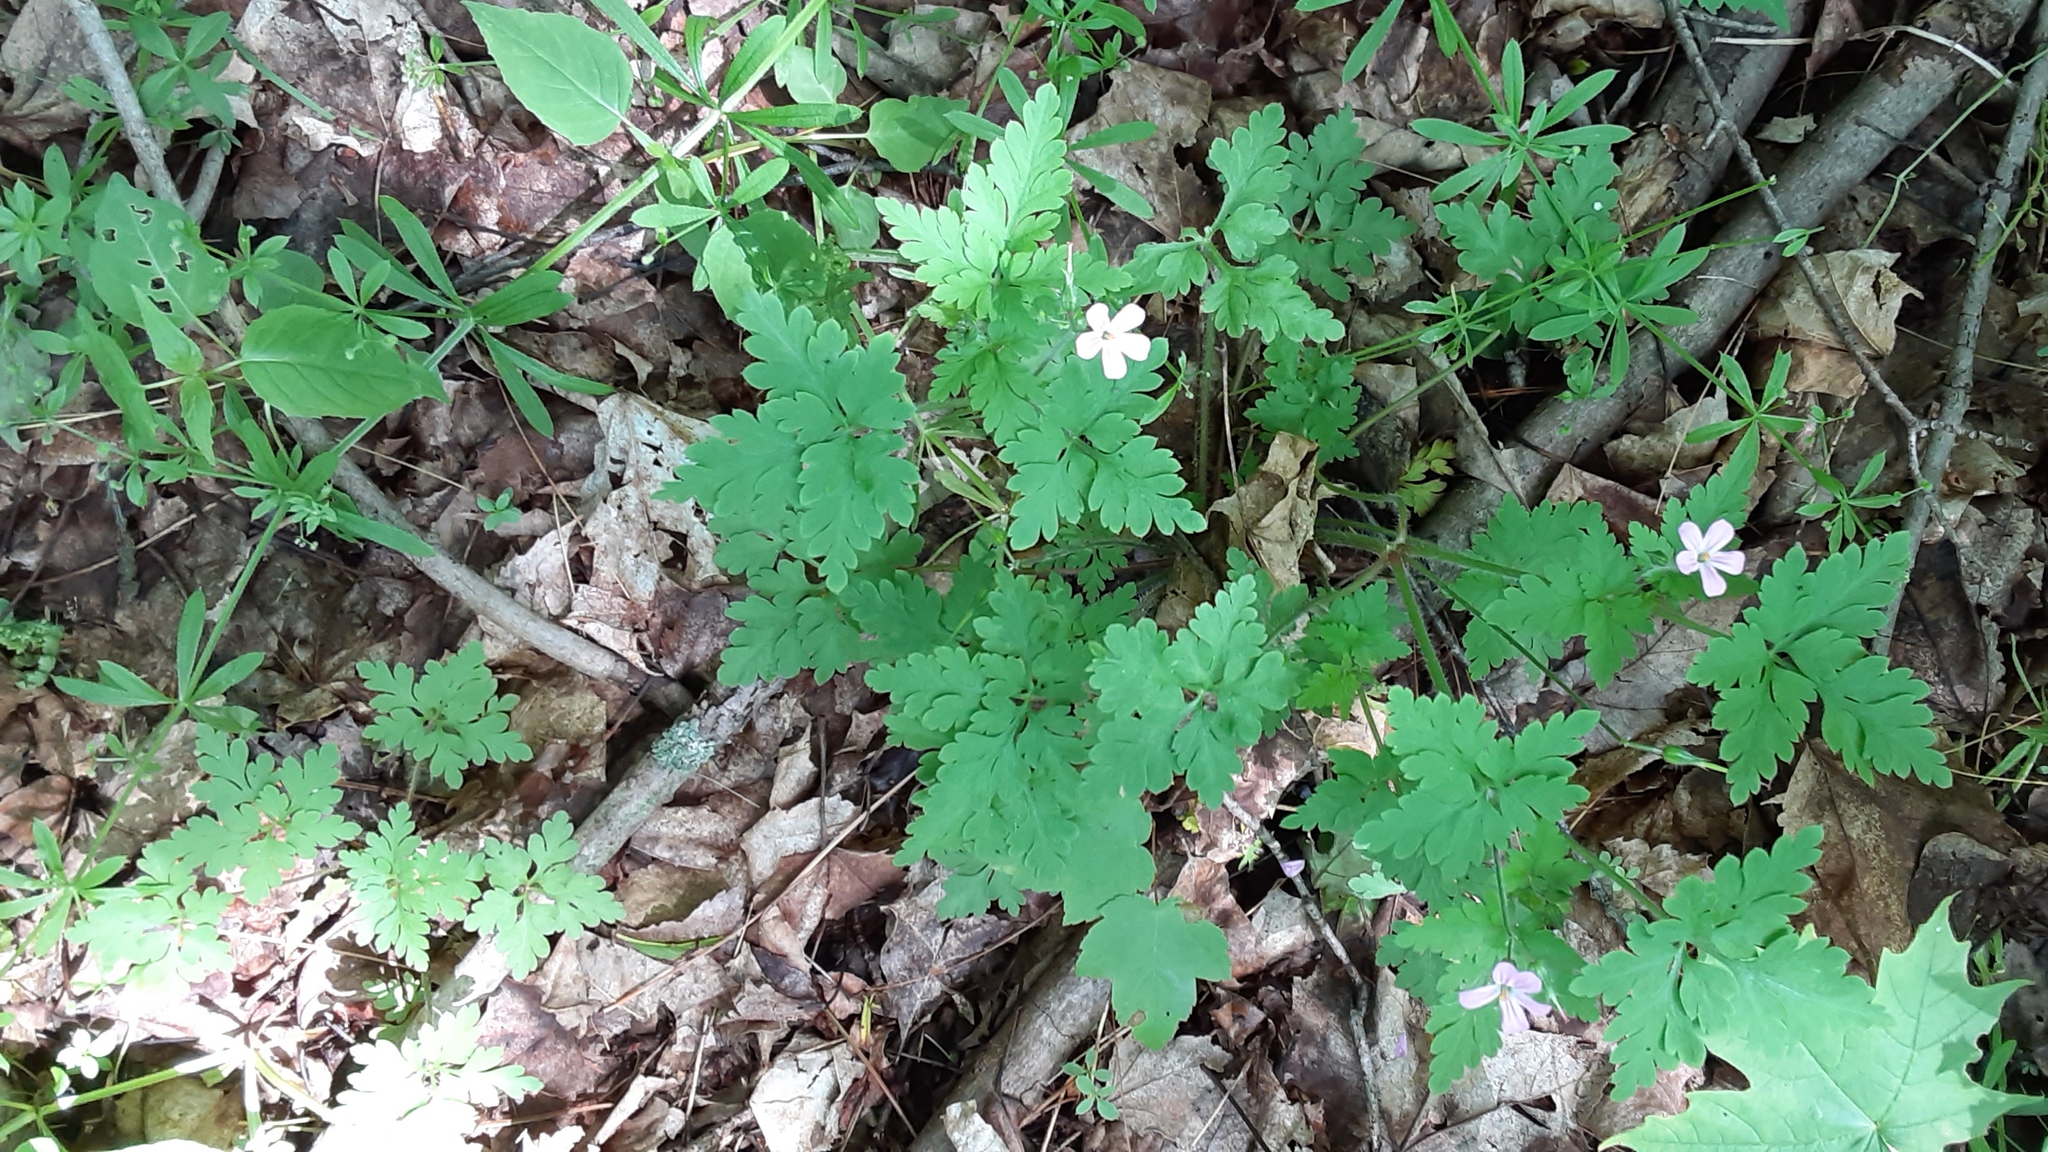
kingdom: Plantae
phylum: Tracheophyta
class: Magnoliopsida
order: Geraniales
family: Geraniaceae
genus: Geranium
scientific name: Geranium robertianum
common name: Herb-robert
